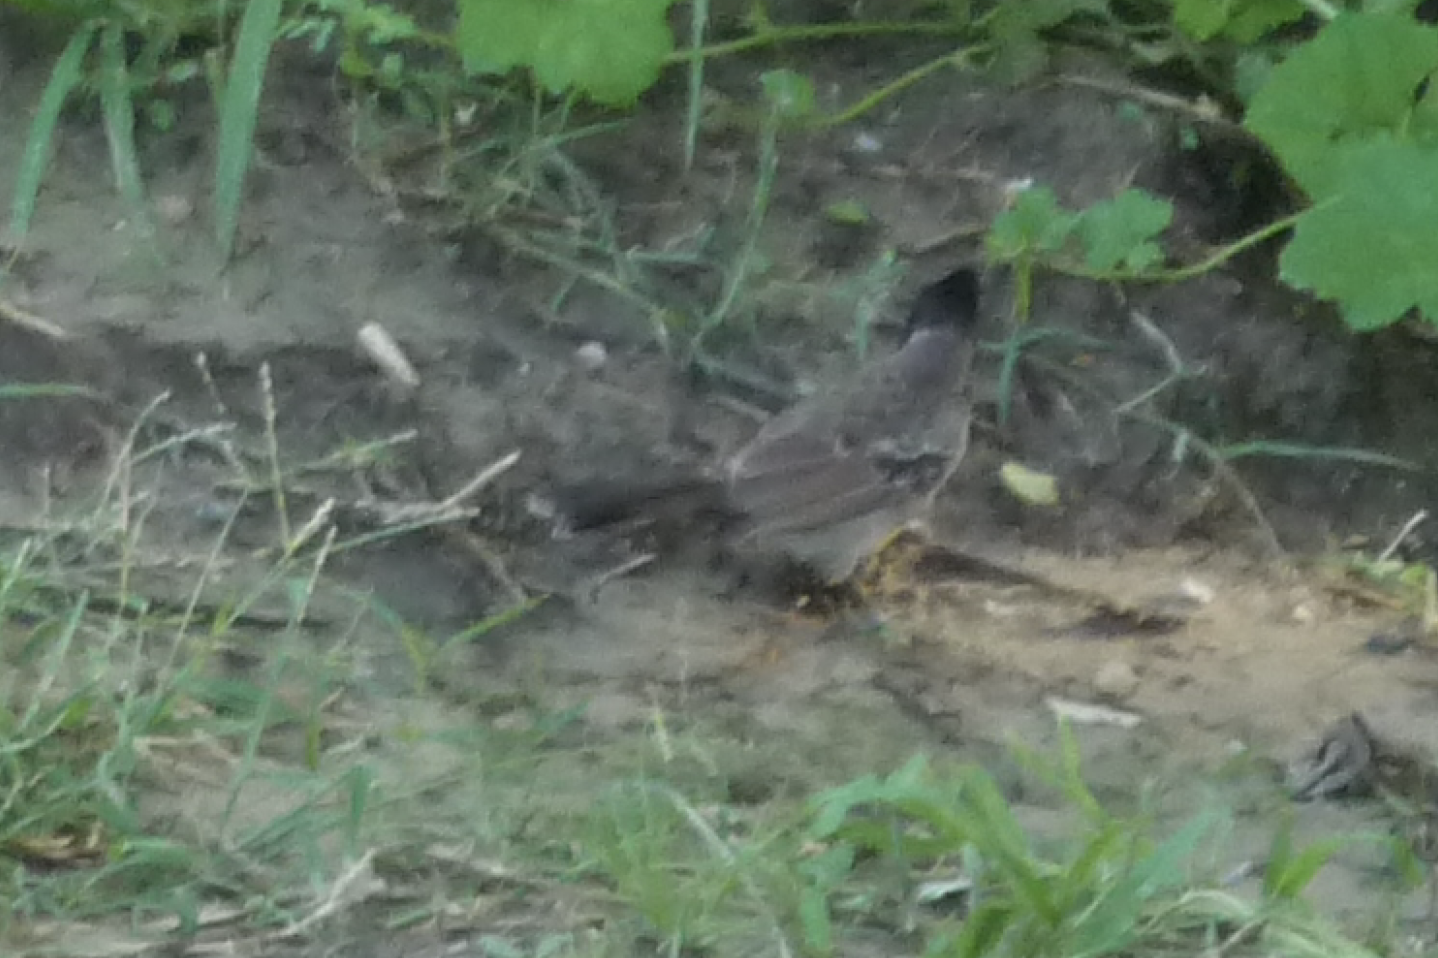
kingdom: Animalia
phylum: Chordata
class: Aves
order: Passeriformes
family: Pycnonotidae
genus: Pycnonotus
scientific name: Pycnonotus cafer
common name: Red-vented bulbul
